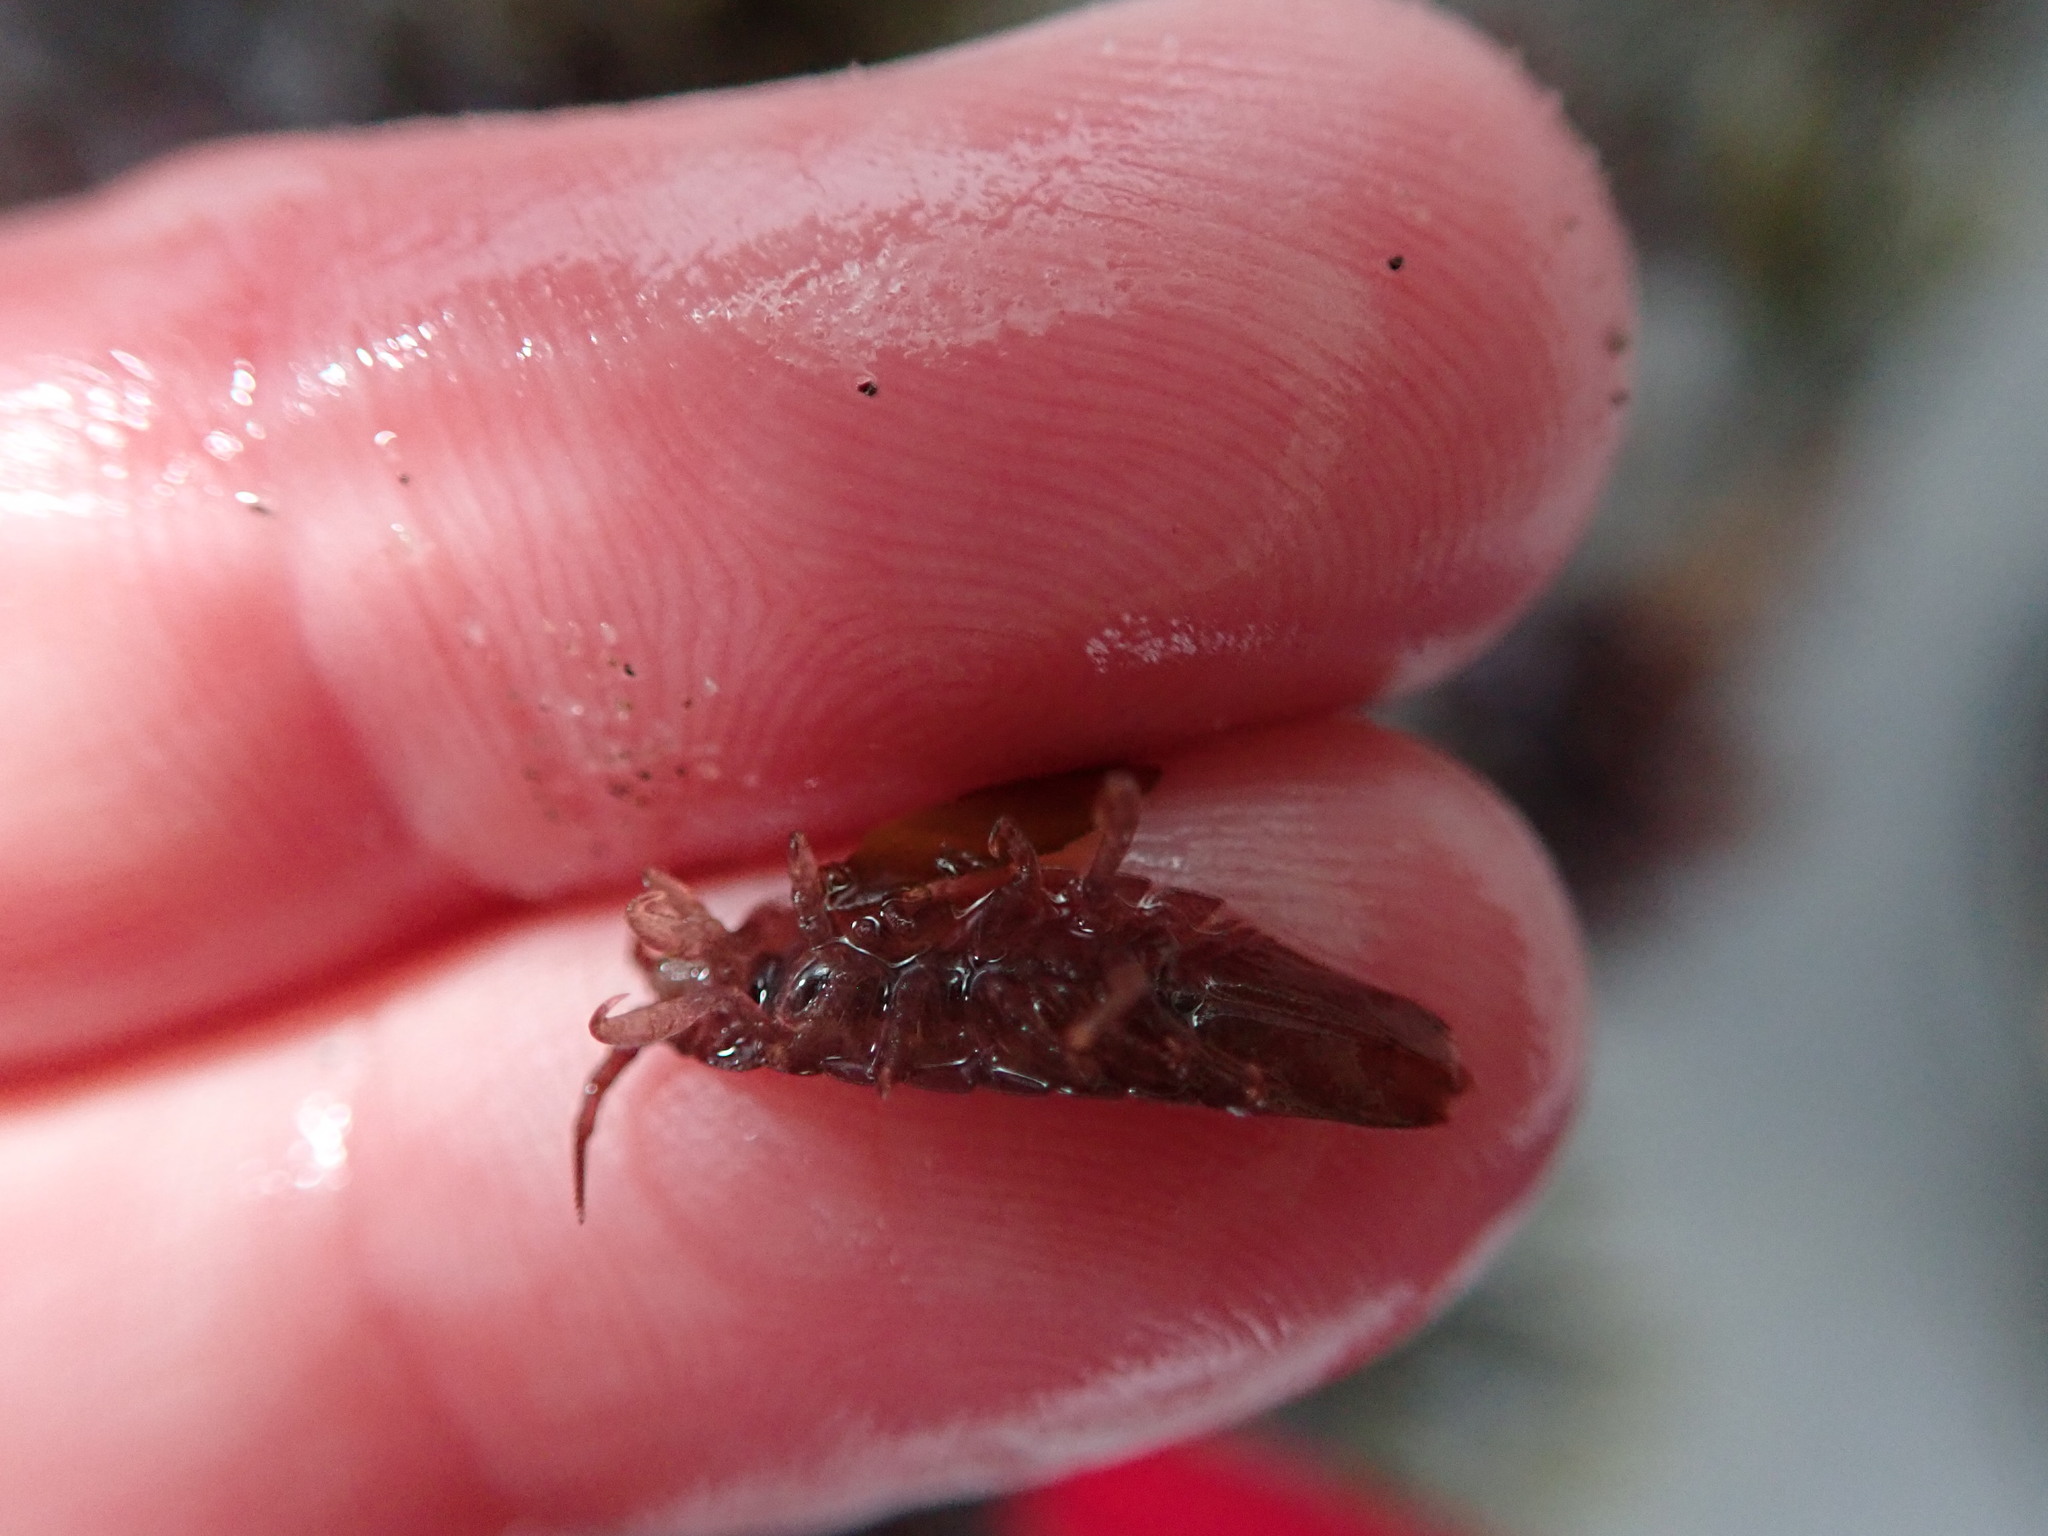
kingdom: Animalia
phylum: Arthropoda
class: Malacostraca
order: Isopoda
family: Idoteidae
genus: Idotea
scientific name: Idotea balthica
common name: Baltic isopod
